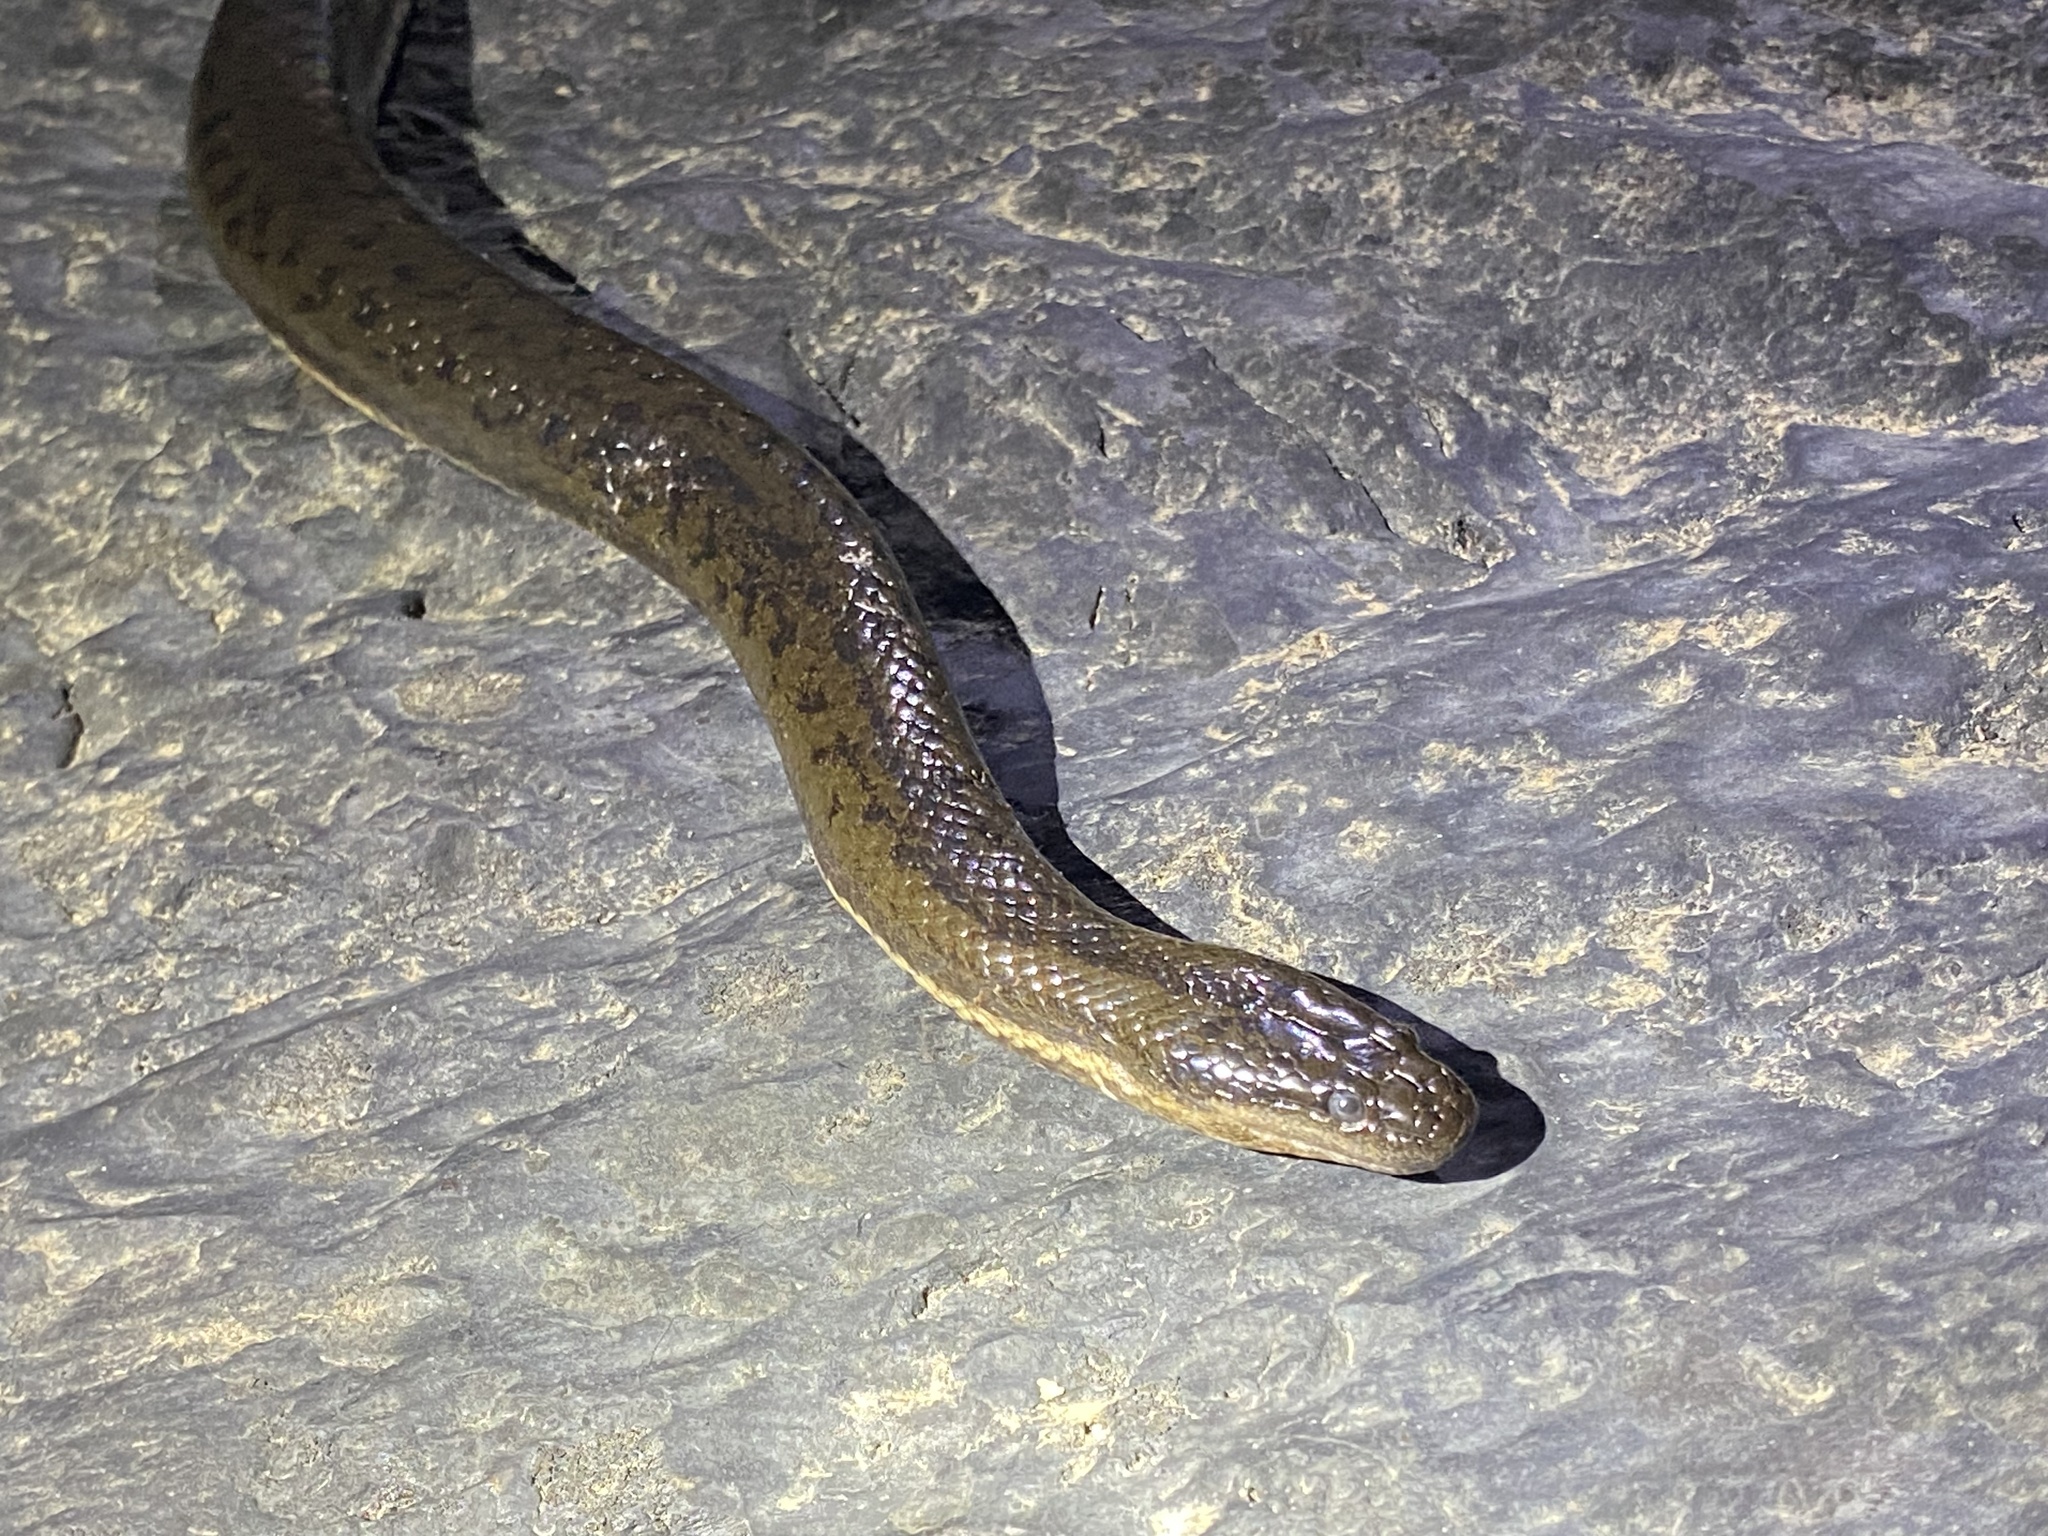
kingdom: Animalia
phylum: Chordata
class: Squamata
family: Homalopsidae
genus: Pseudoferania
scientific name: Pseudoferania polylepis
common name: Smooth watersnake
